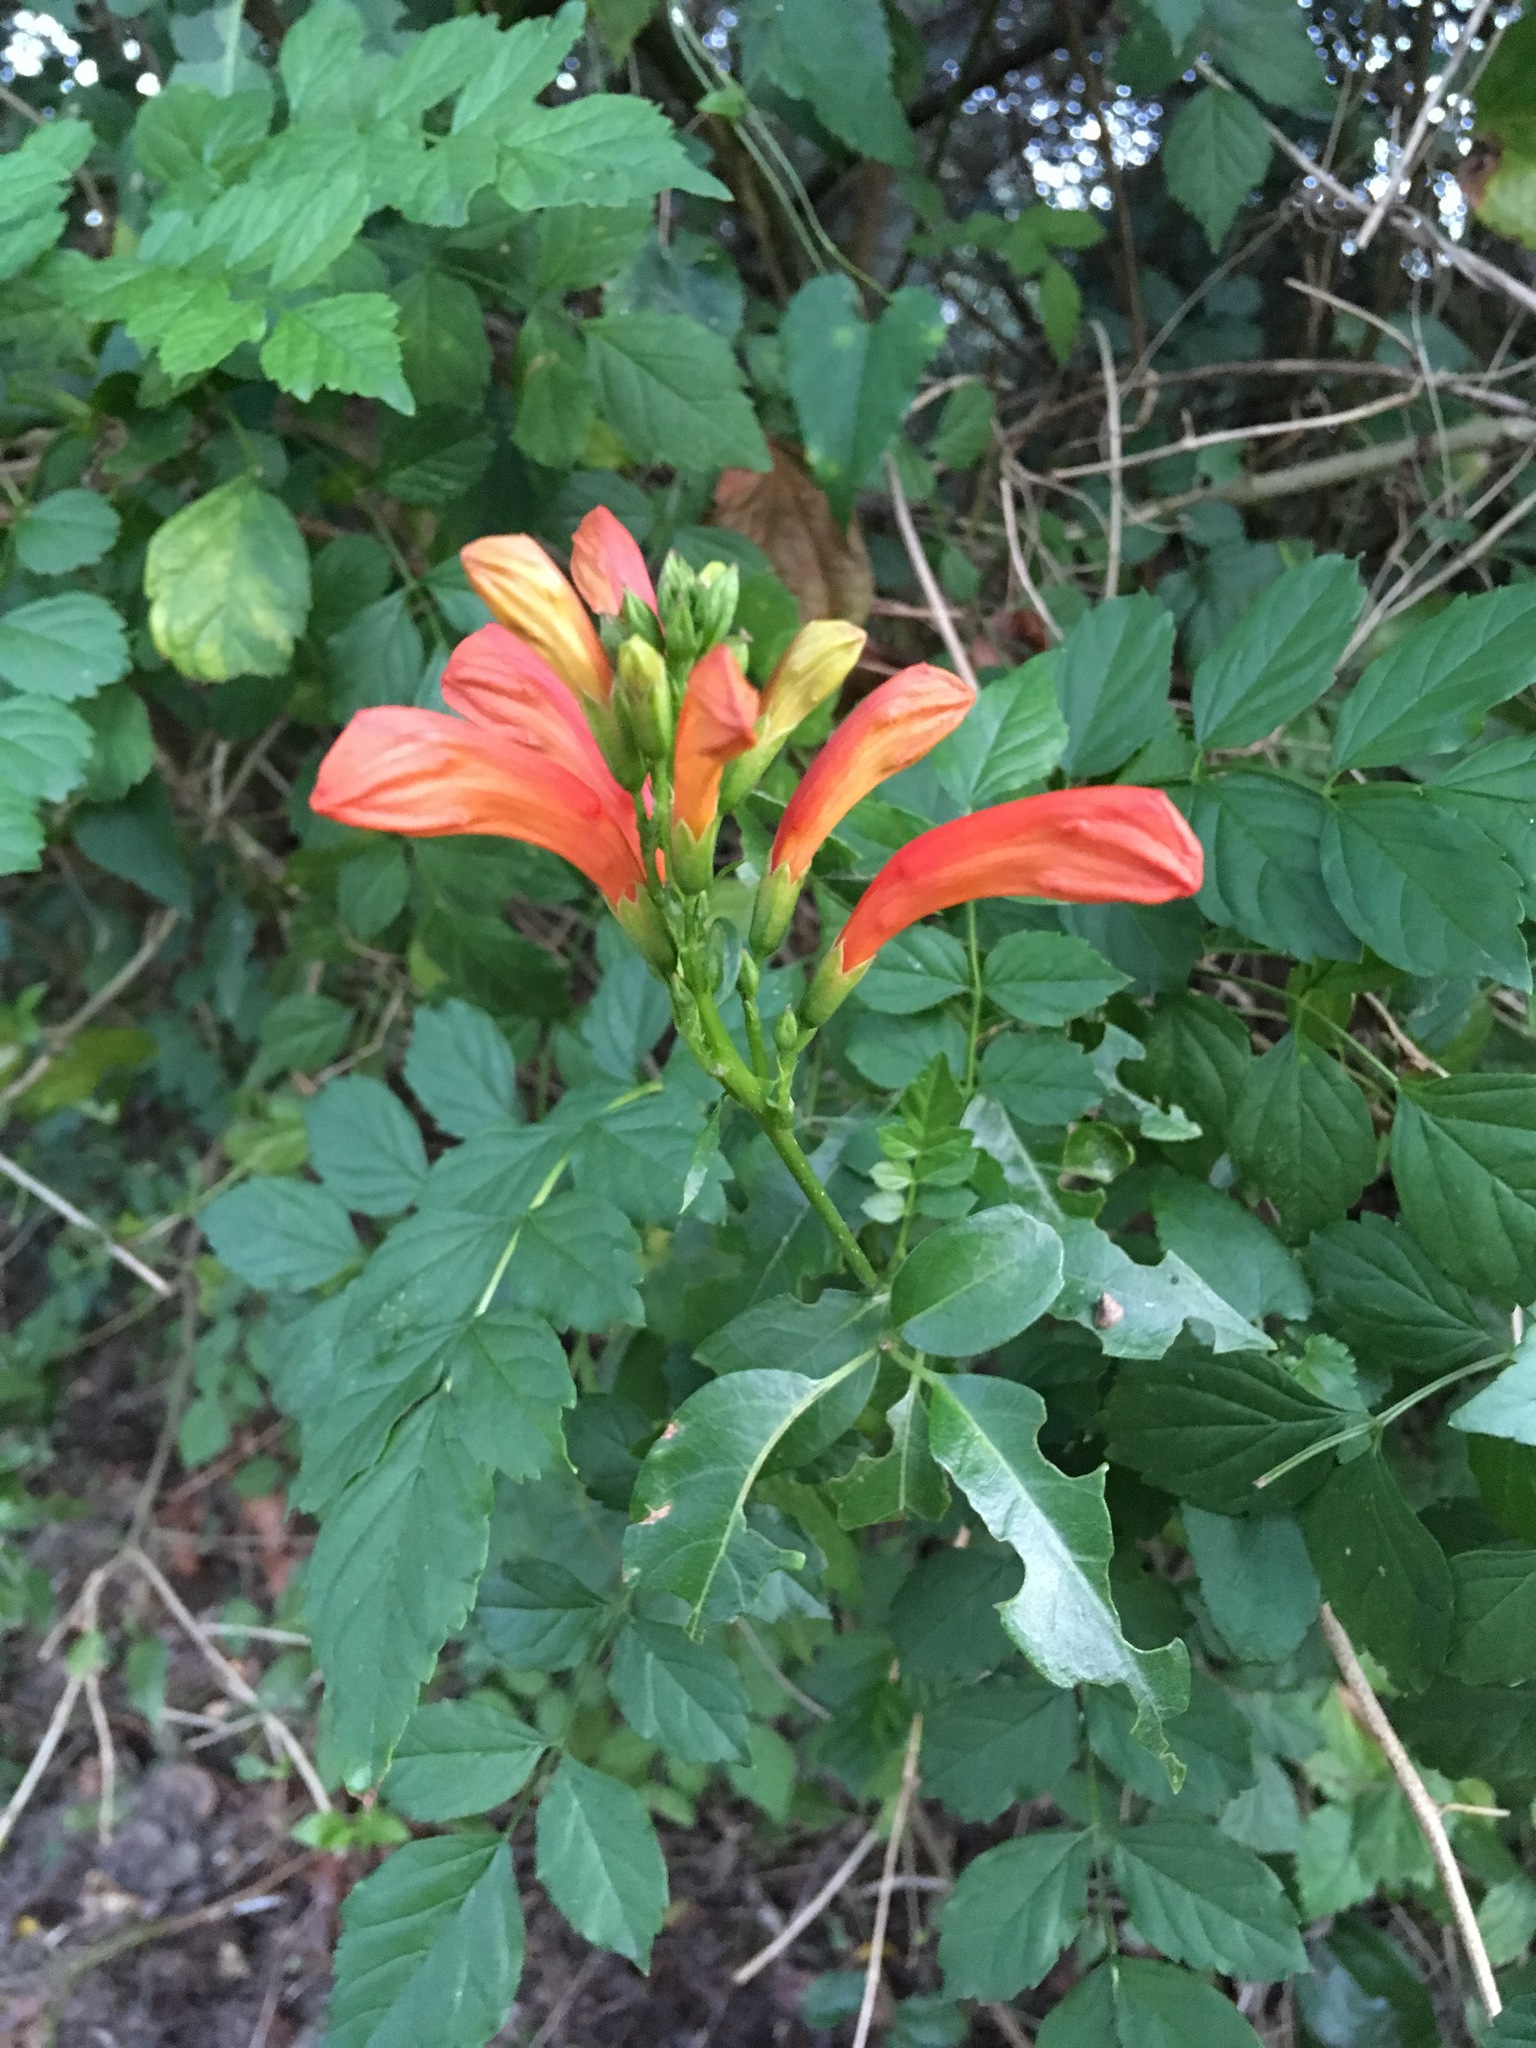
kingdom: Plantae
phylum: Tracheophyta
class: Magnoliopsida
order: Lamiales
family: Bignoniaceae
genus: Tecomaria
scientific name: Tecomaria capensis
